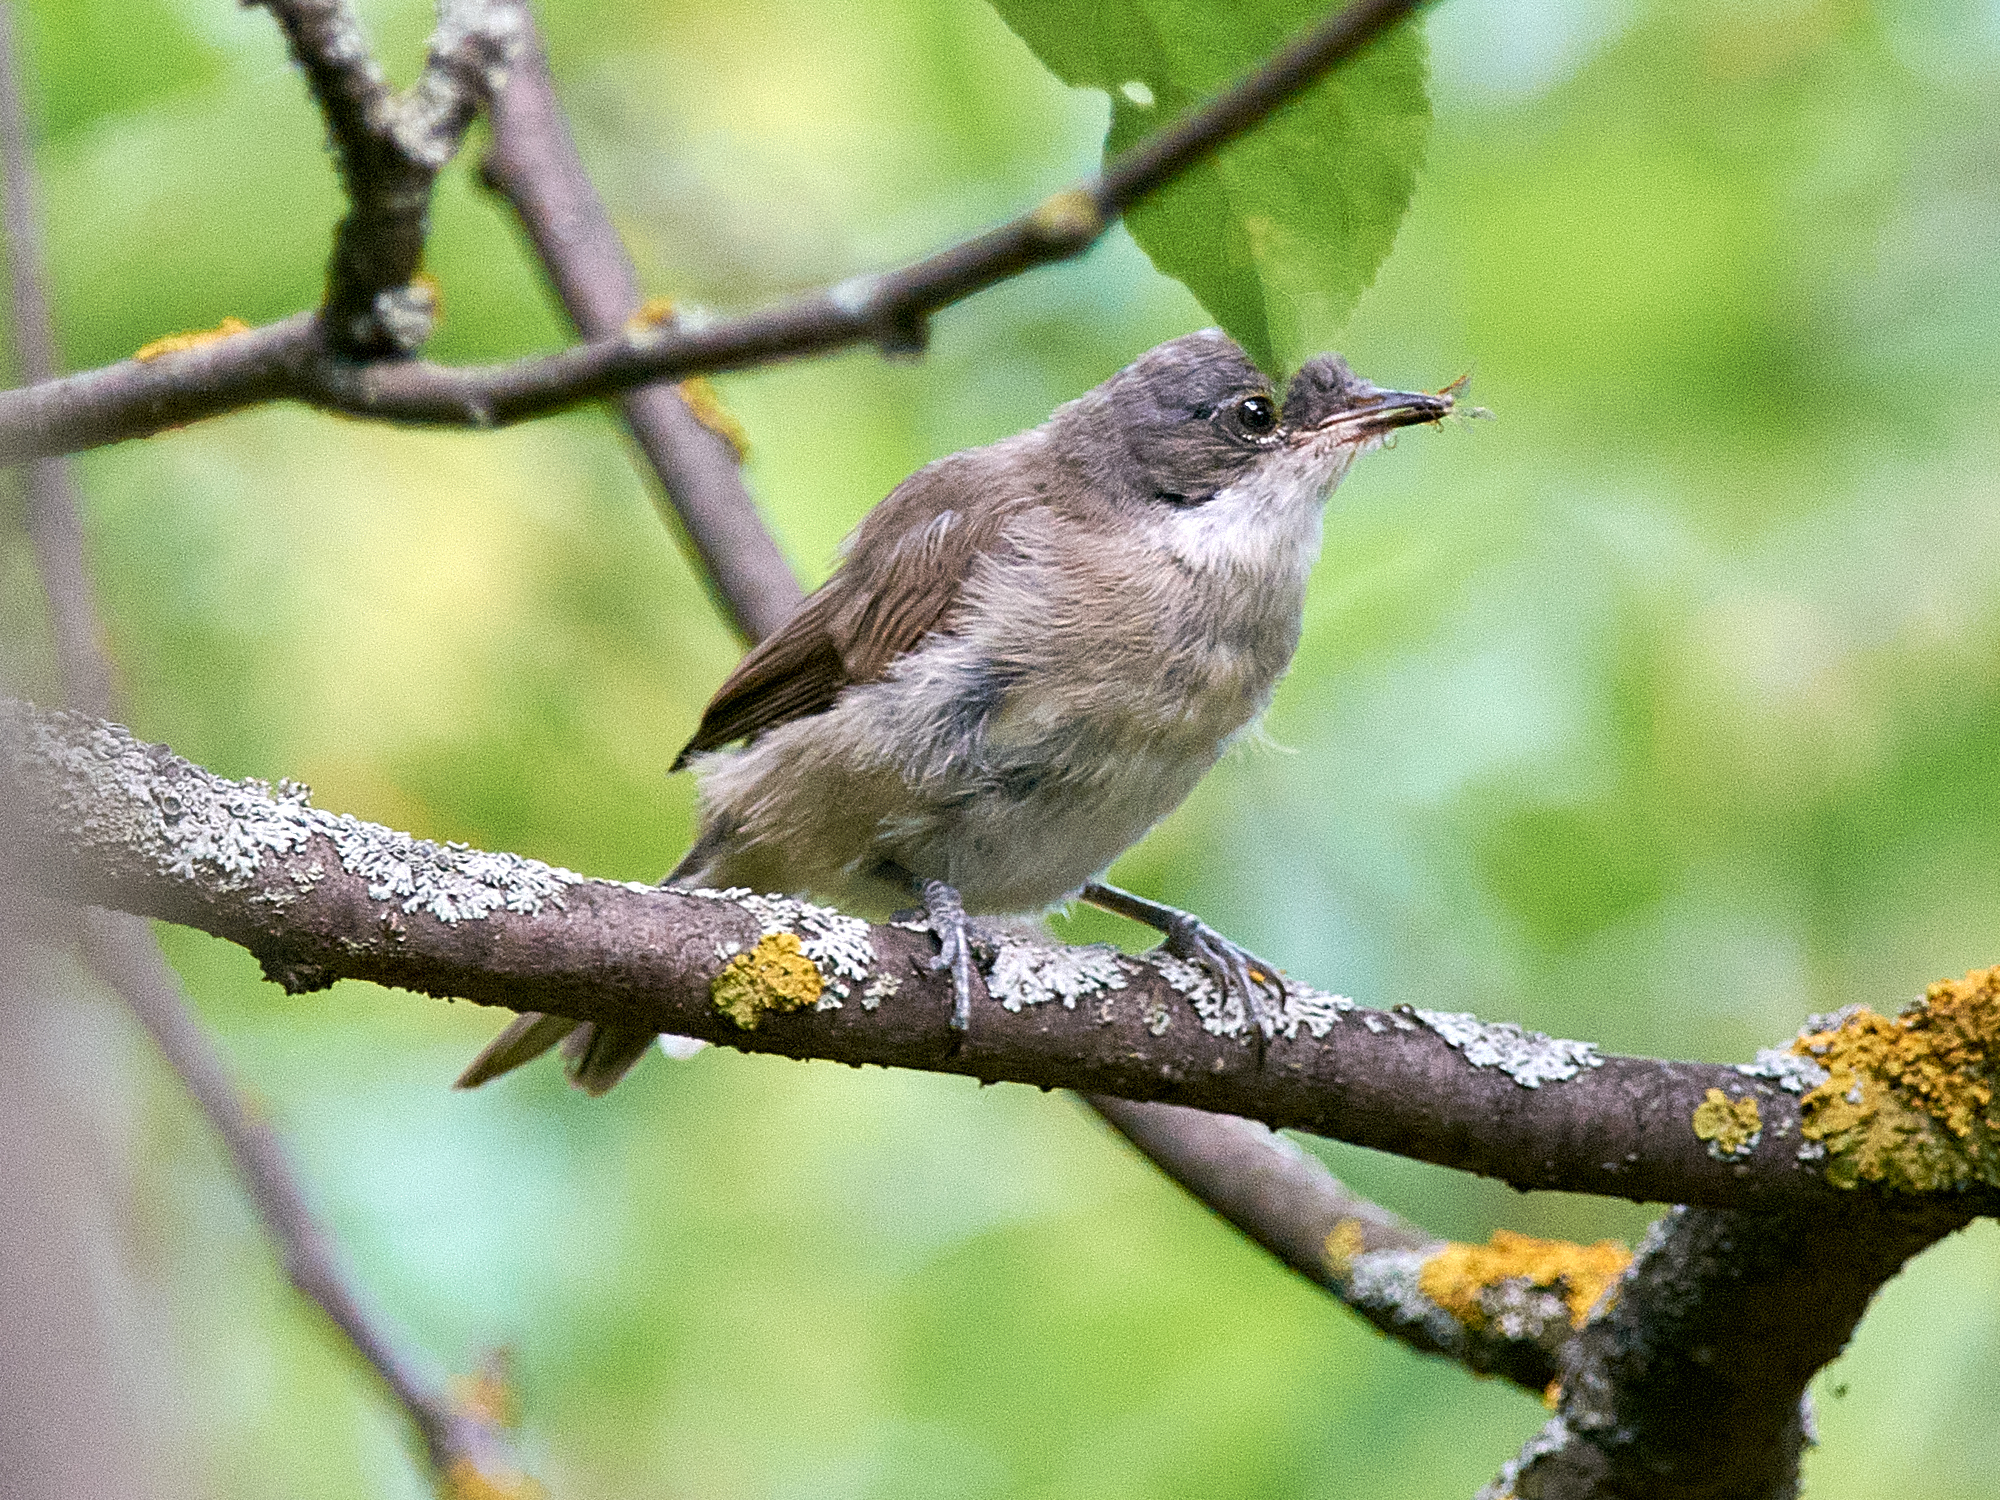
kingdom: Animalia
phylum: Chordata
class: Aves
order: Passeriformes
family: Sylviidae
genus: Sylvia
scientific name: Sylvia curruca
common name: Lesser whitethroat
